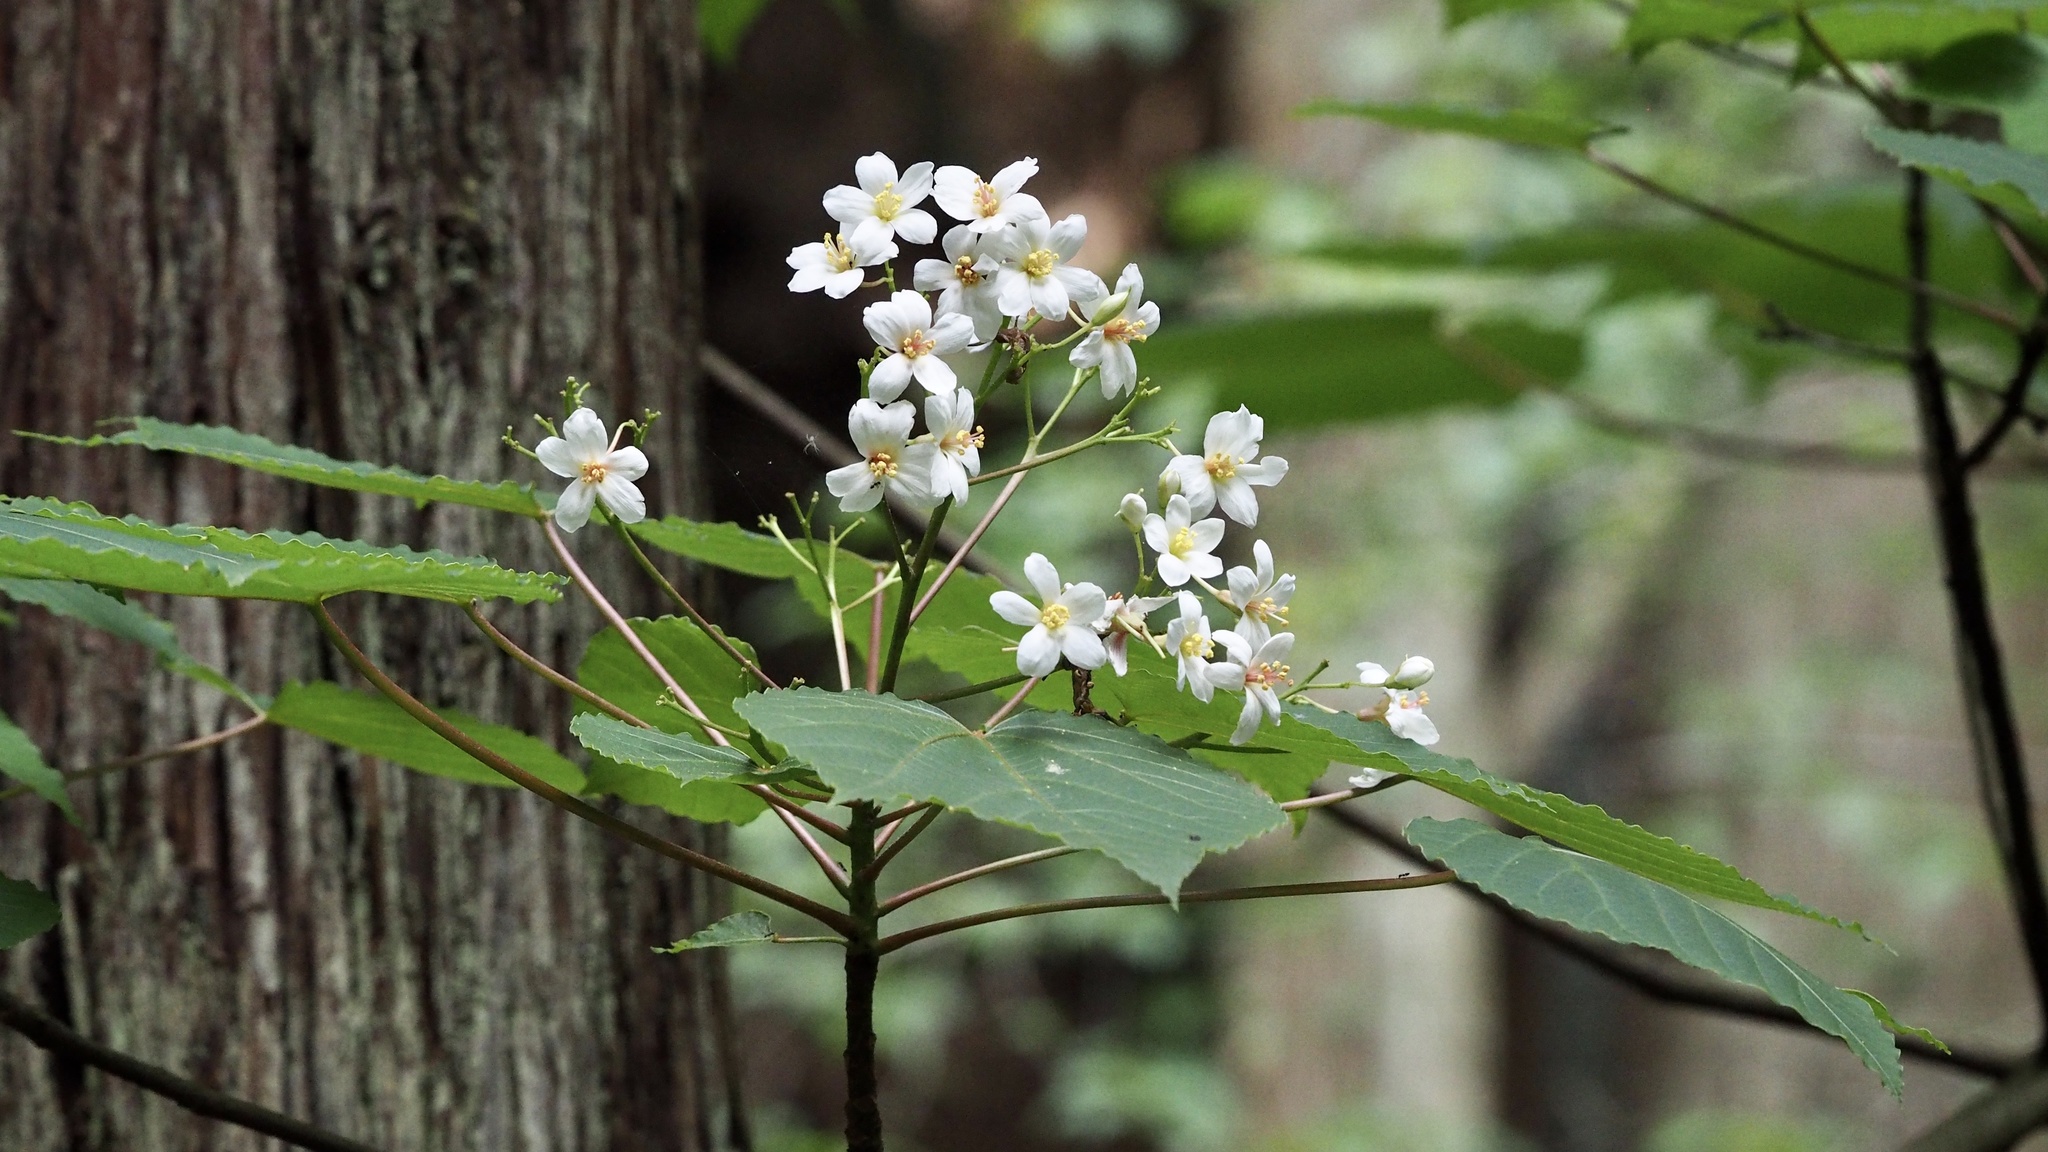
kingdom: Plantae
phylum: Tracheophyta
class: Magnoliopsida
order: Malpighiales
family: Euphorbiaceae
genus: Vernicia
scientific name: Vernicia cordata
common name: Japanese tung-oil-tree
